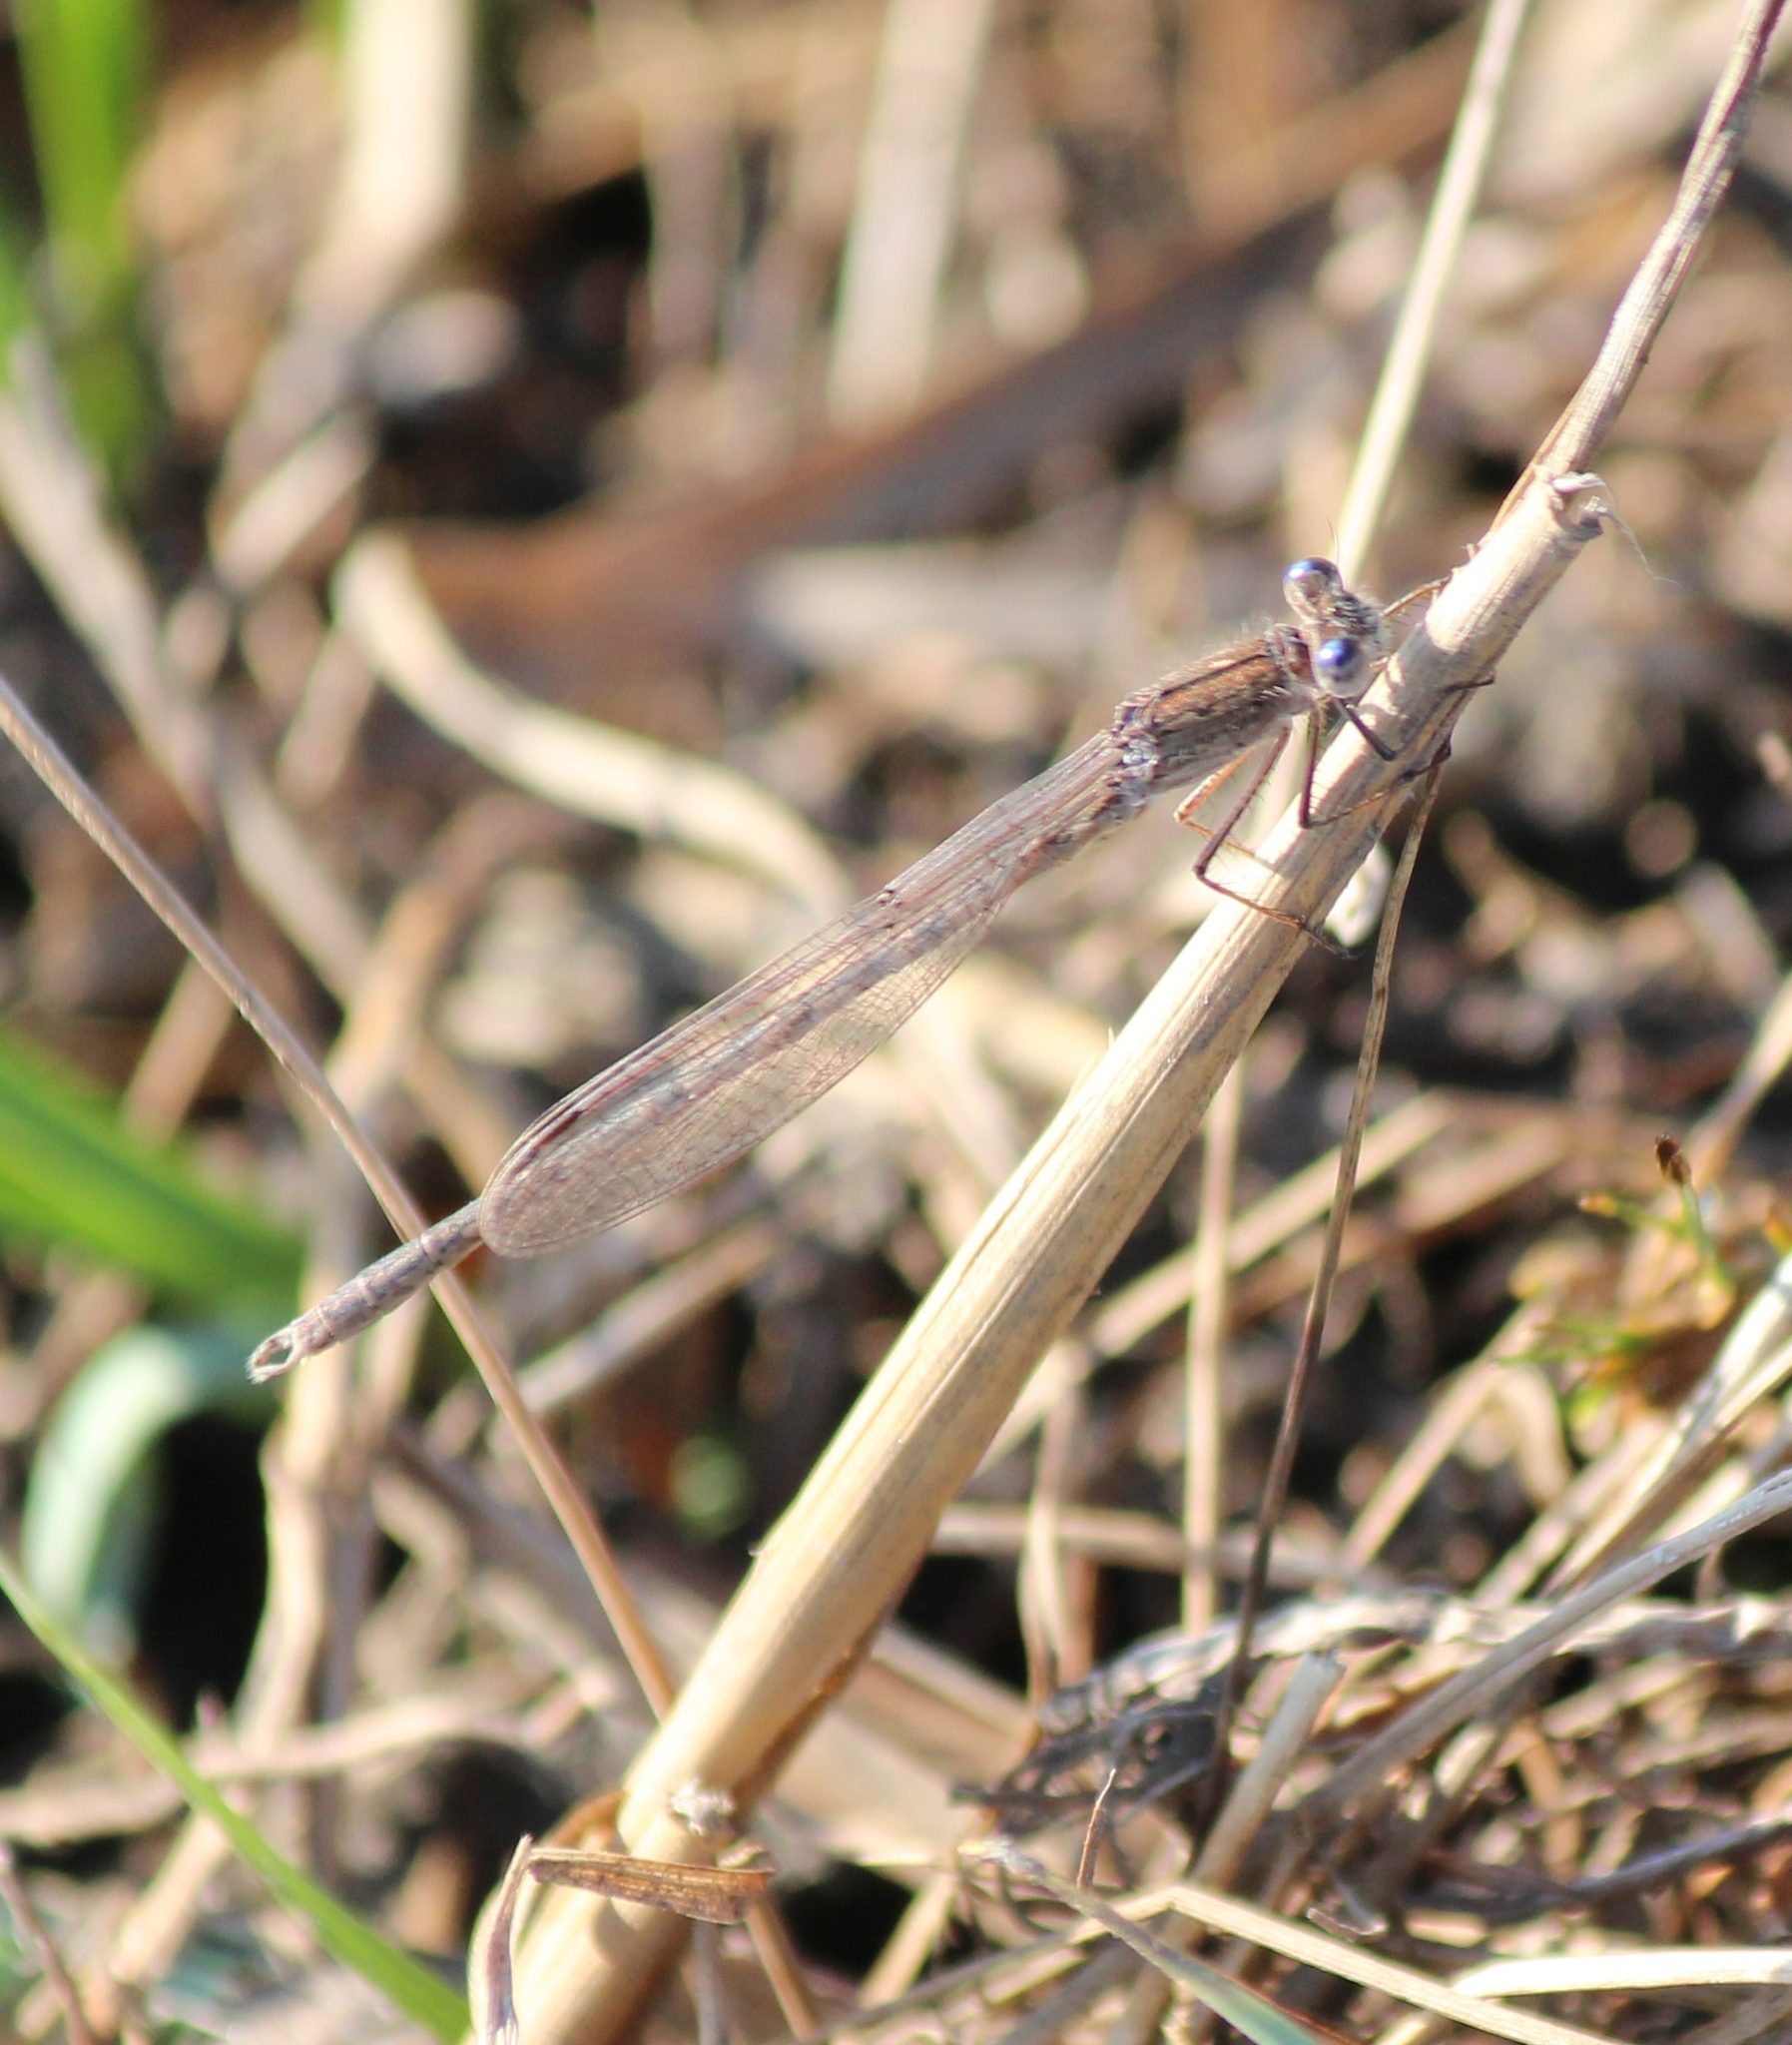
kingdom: Animalia
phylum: Arthropoda
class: Insecta
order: Odonata
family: Lestidae
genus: Sympecma
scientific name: Sympecma paedisca
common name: Siberian winter damsel
